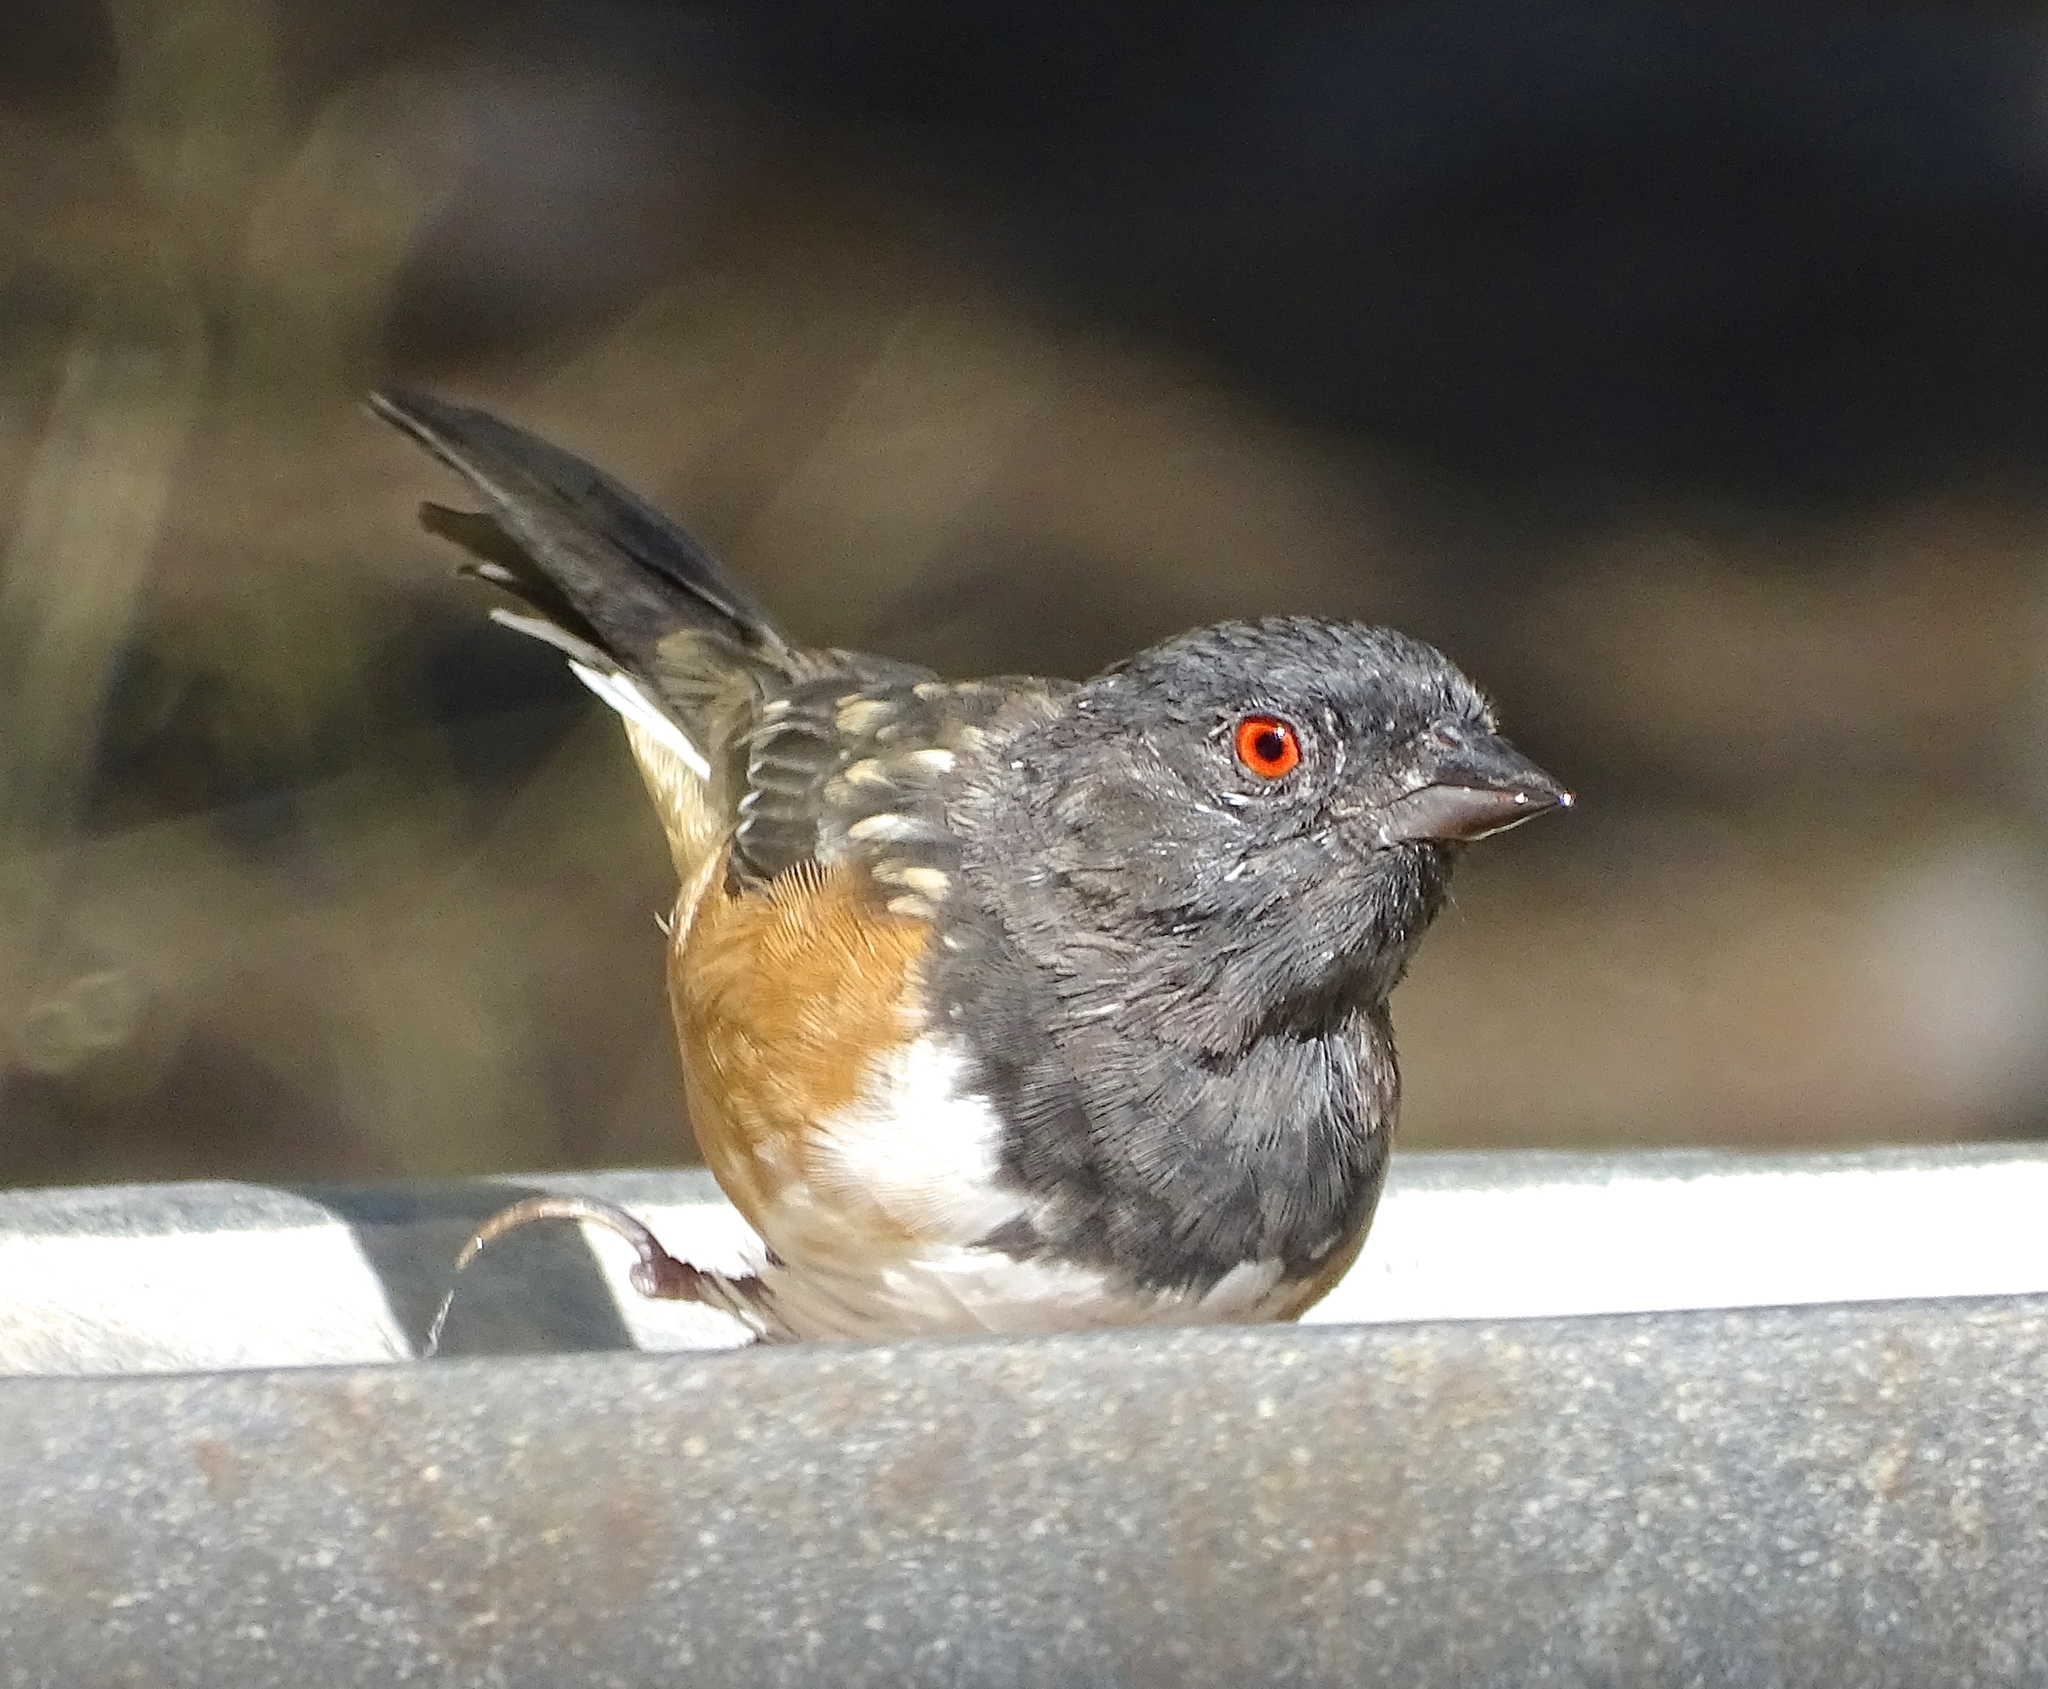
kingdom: Animalia
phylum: Chordata
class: Aves
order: Passeriformes
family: Passerellidae
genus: Pipilo
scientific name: Pipilo maculatus
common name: Spotted towhee
